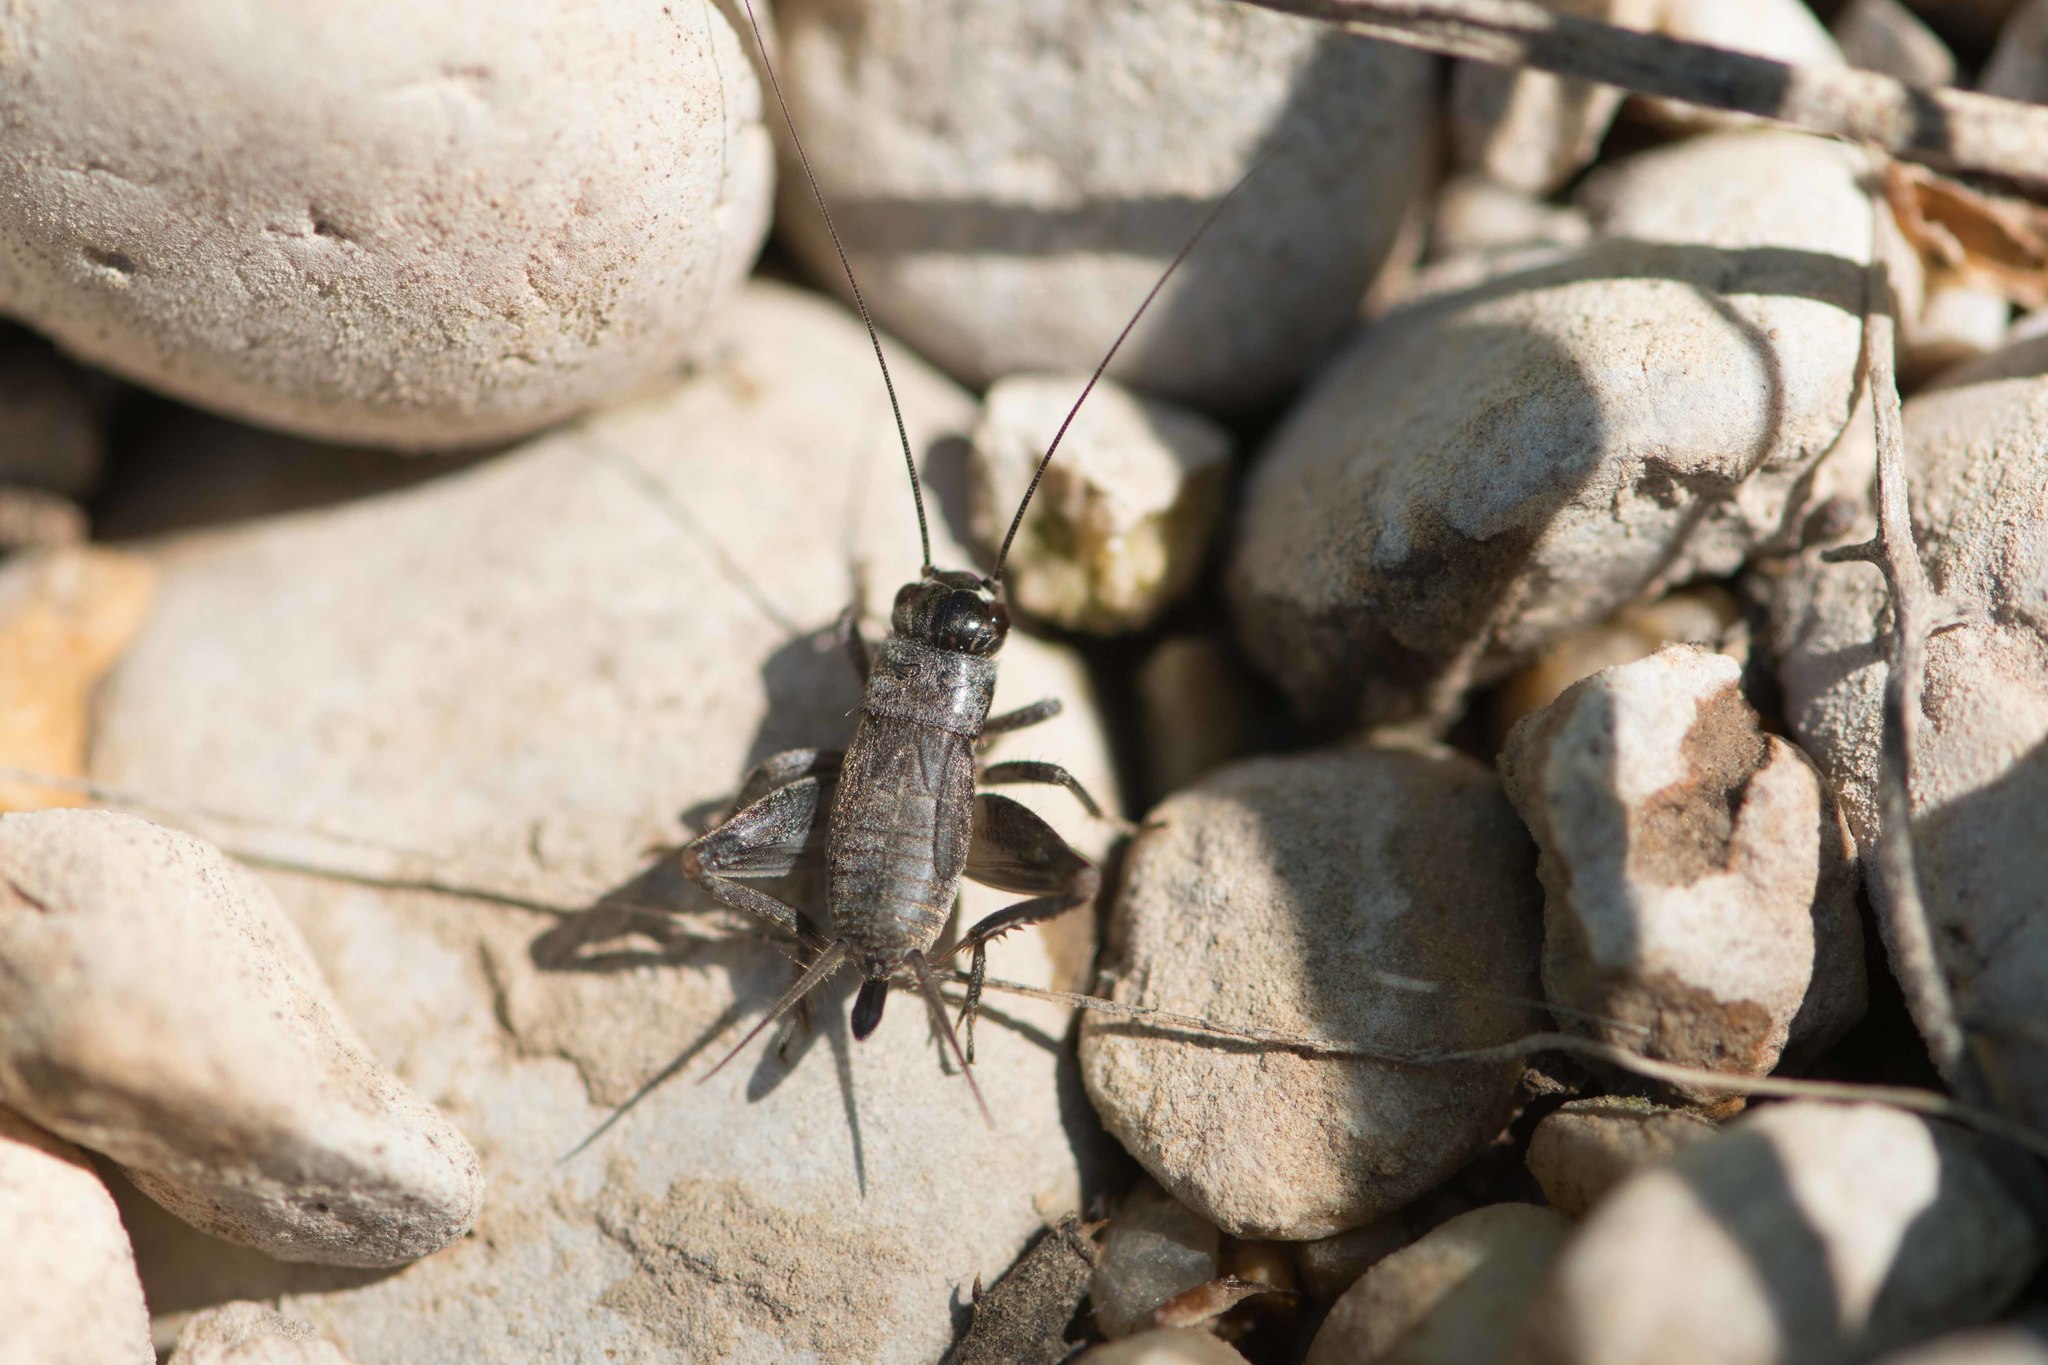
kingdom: Animalia
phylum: Arthropoda
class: Insecta
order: Orthoptera
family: Gryllidae
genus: Eumodicogryllus
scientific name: Eumodicogryllus bordigalensis
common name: Bordeaux cricket
